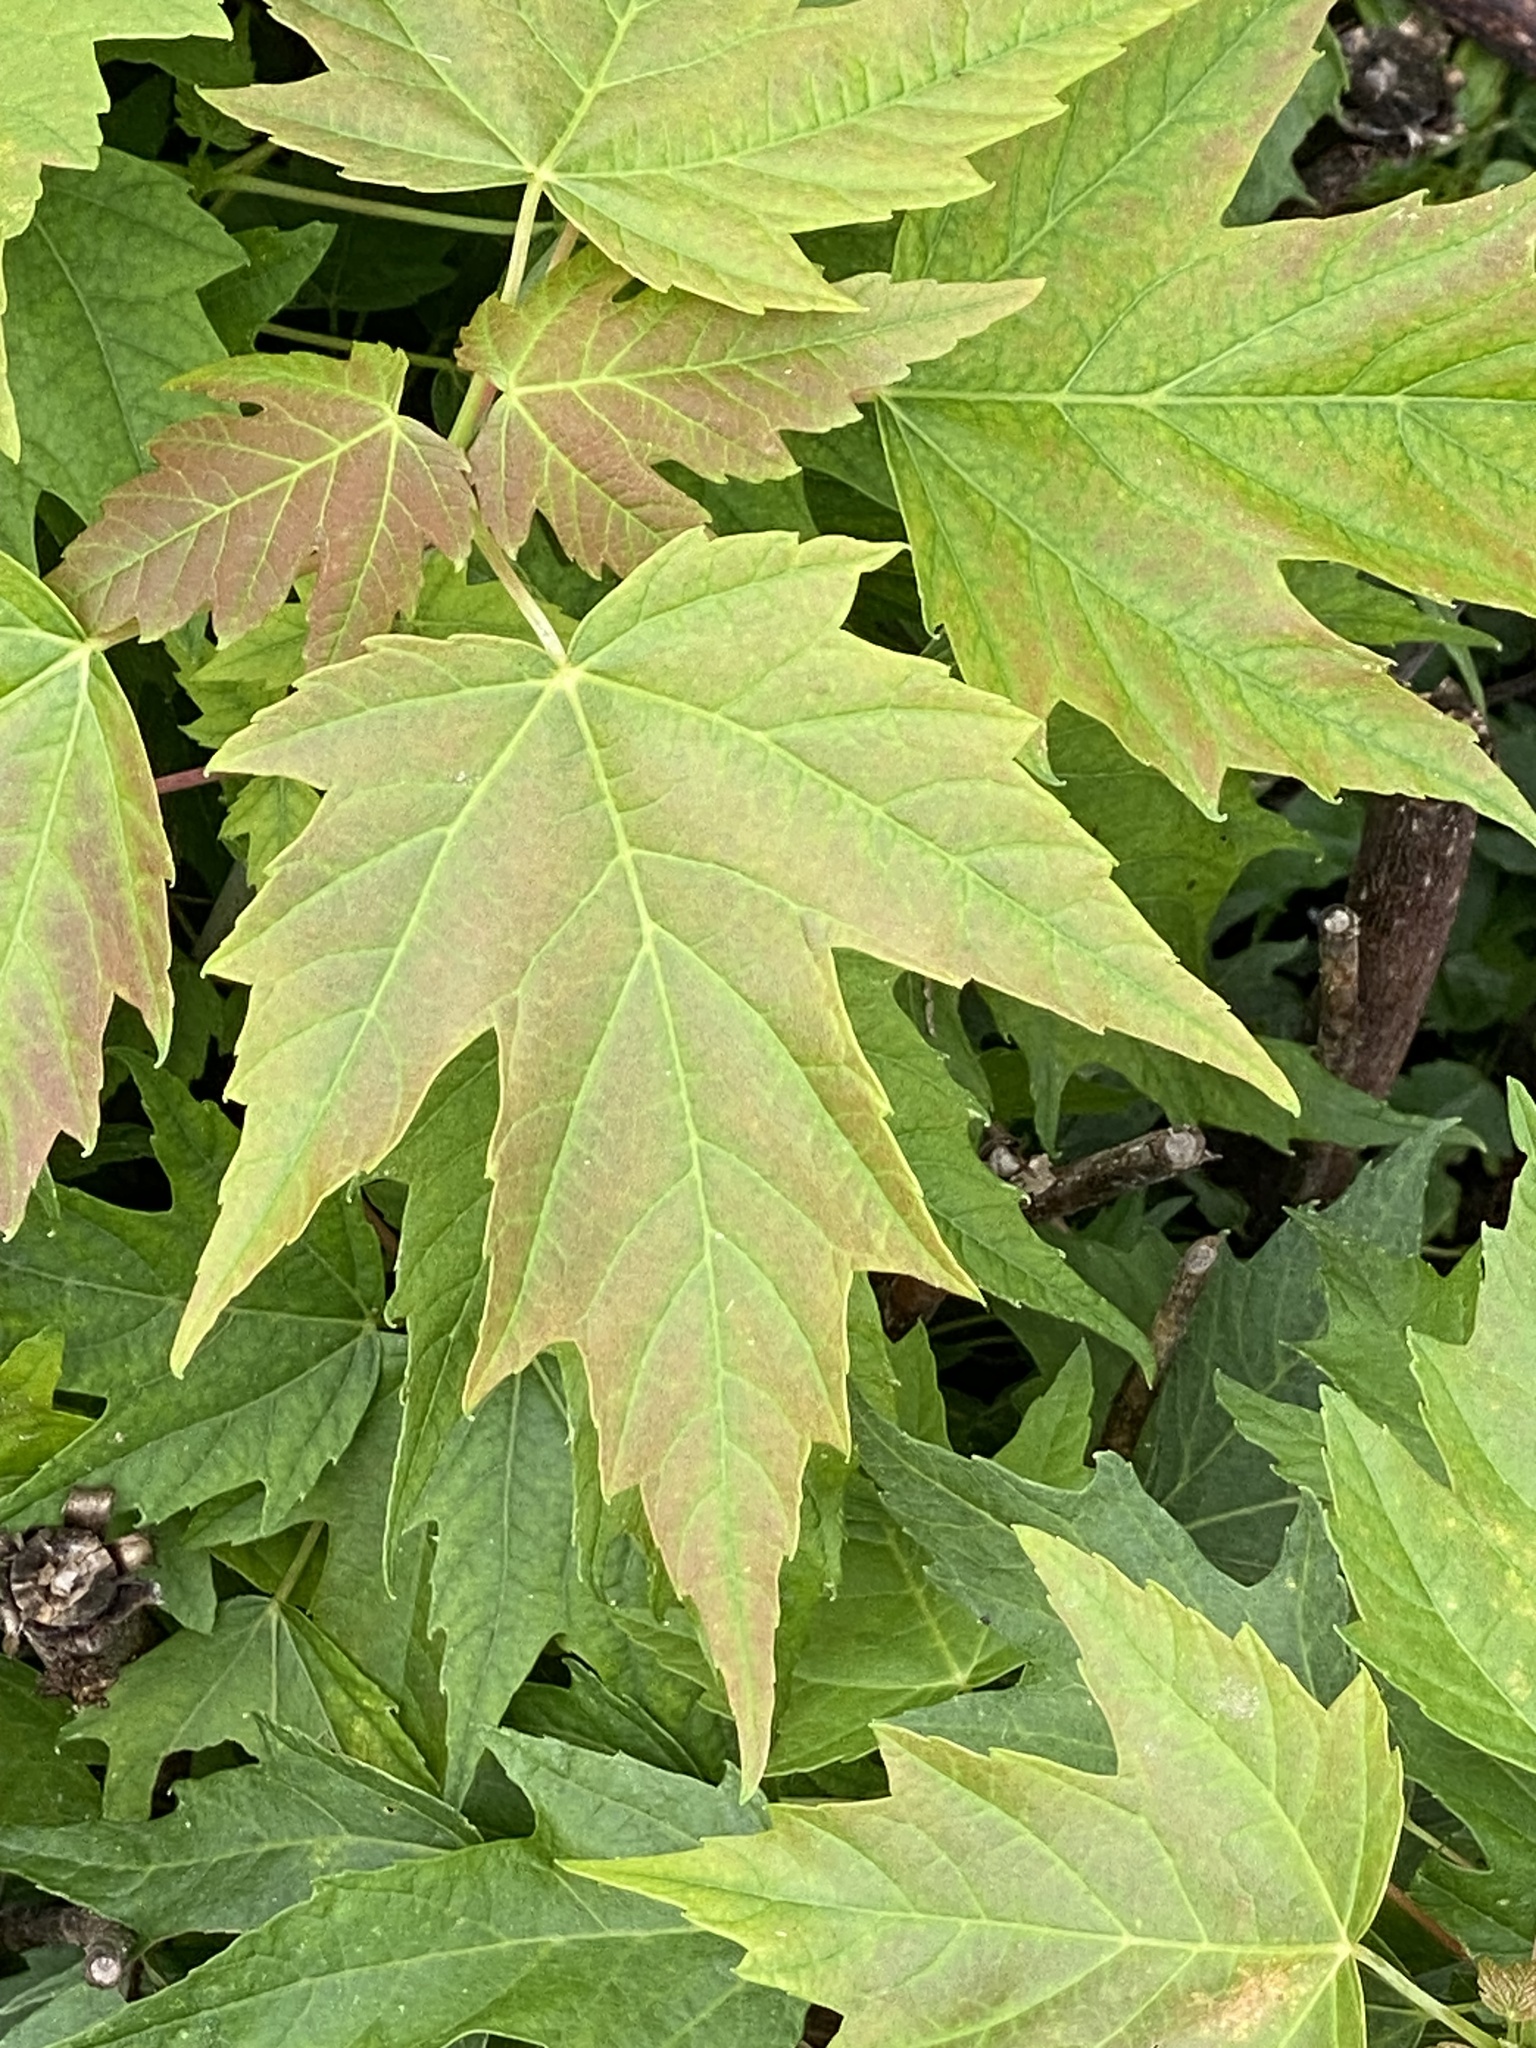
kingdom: Plantae
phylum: Tracheophyta
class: Magnoliopsida
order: Sapindales
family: Sapindaceae
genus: Acer
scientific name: Acer saccharinum
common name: Silver maple
